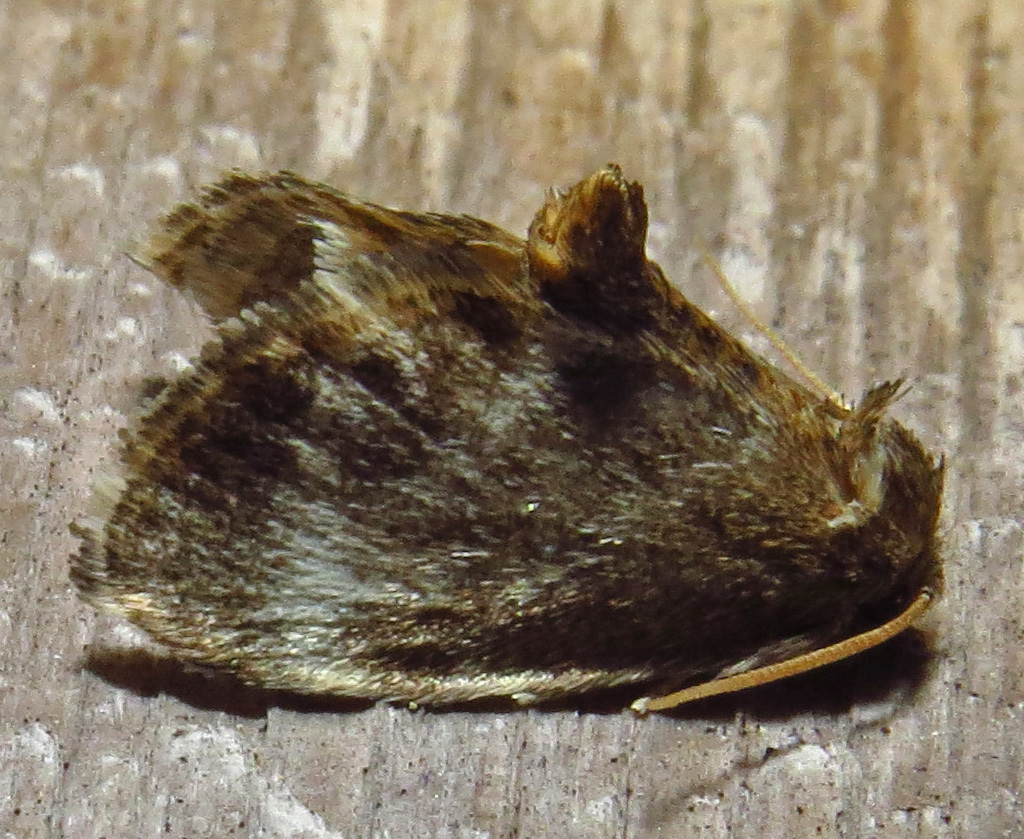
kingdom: Animalia
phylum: Arthropoda
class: Insecta
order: Lepidoptera
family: Limacodidae
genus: Packardia
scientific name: Packardia elegans
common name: Elegant tailed slug moth
